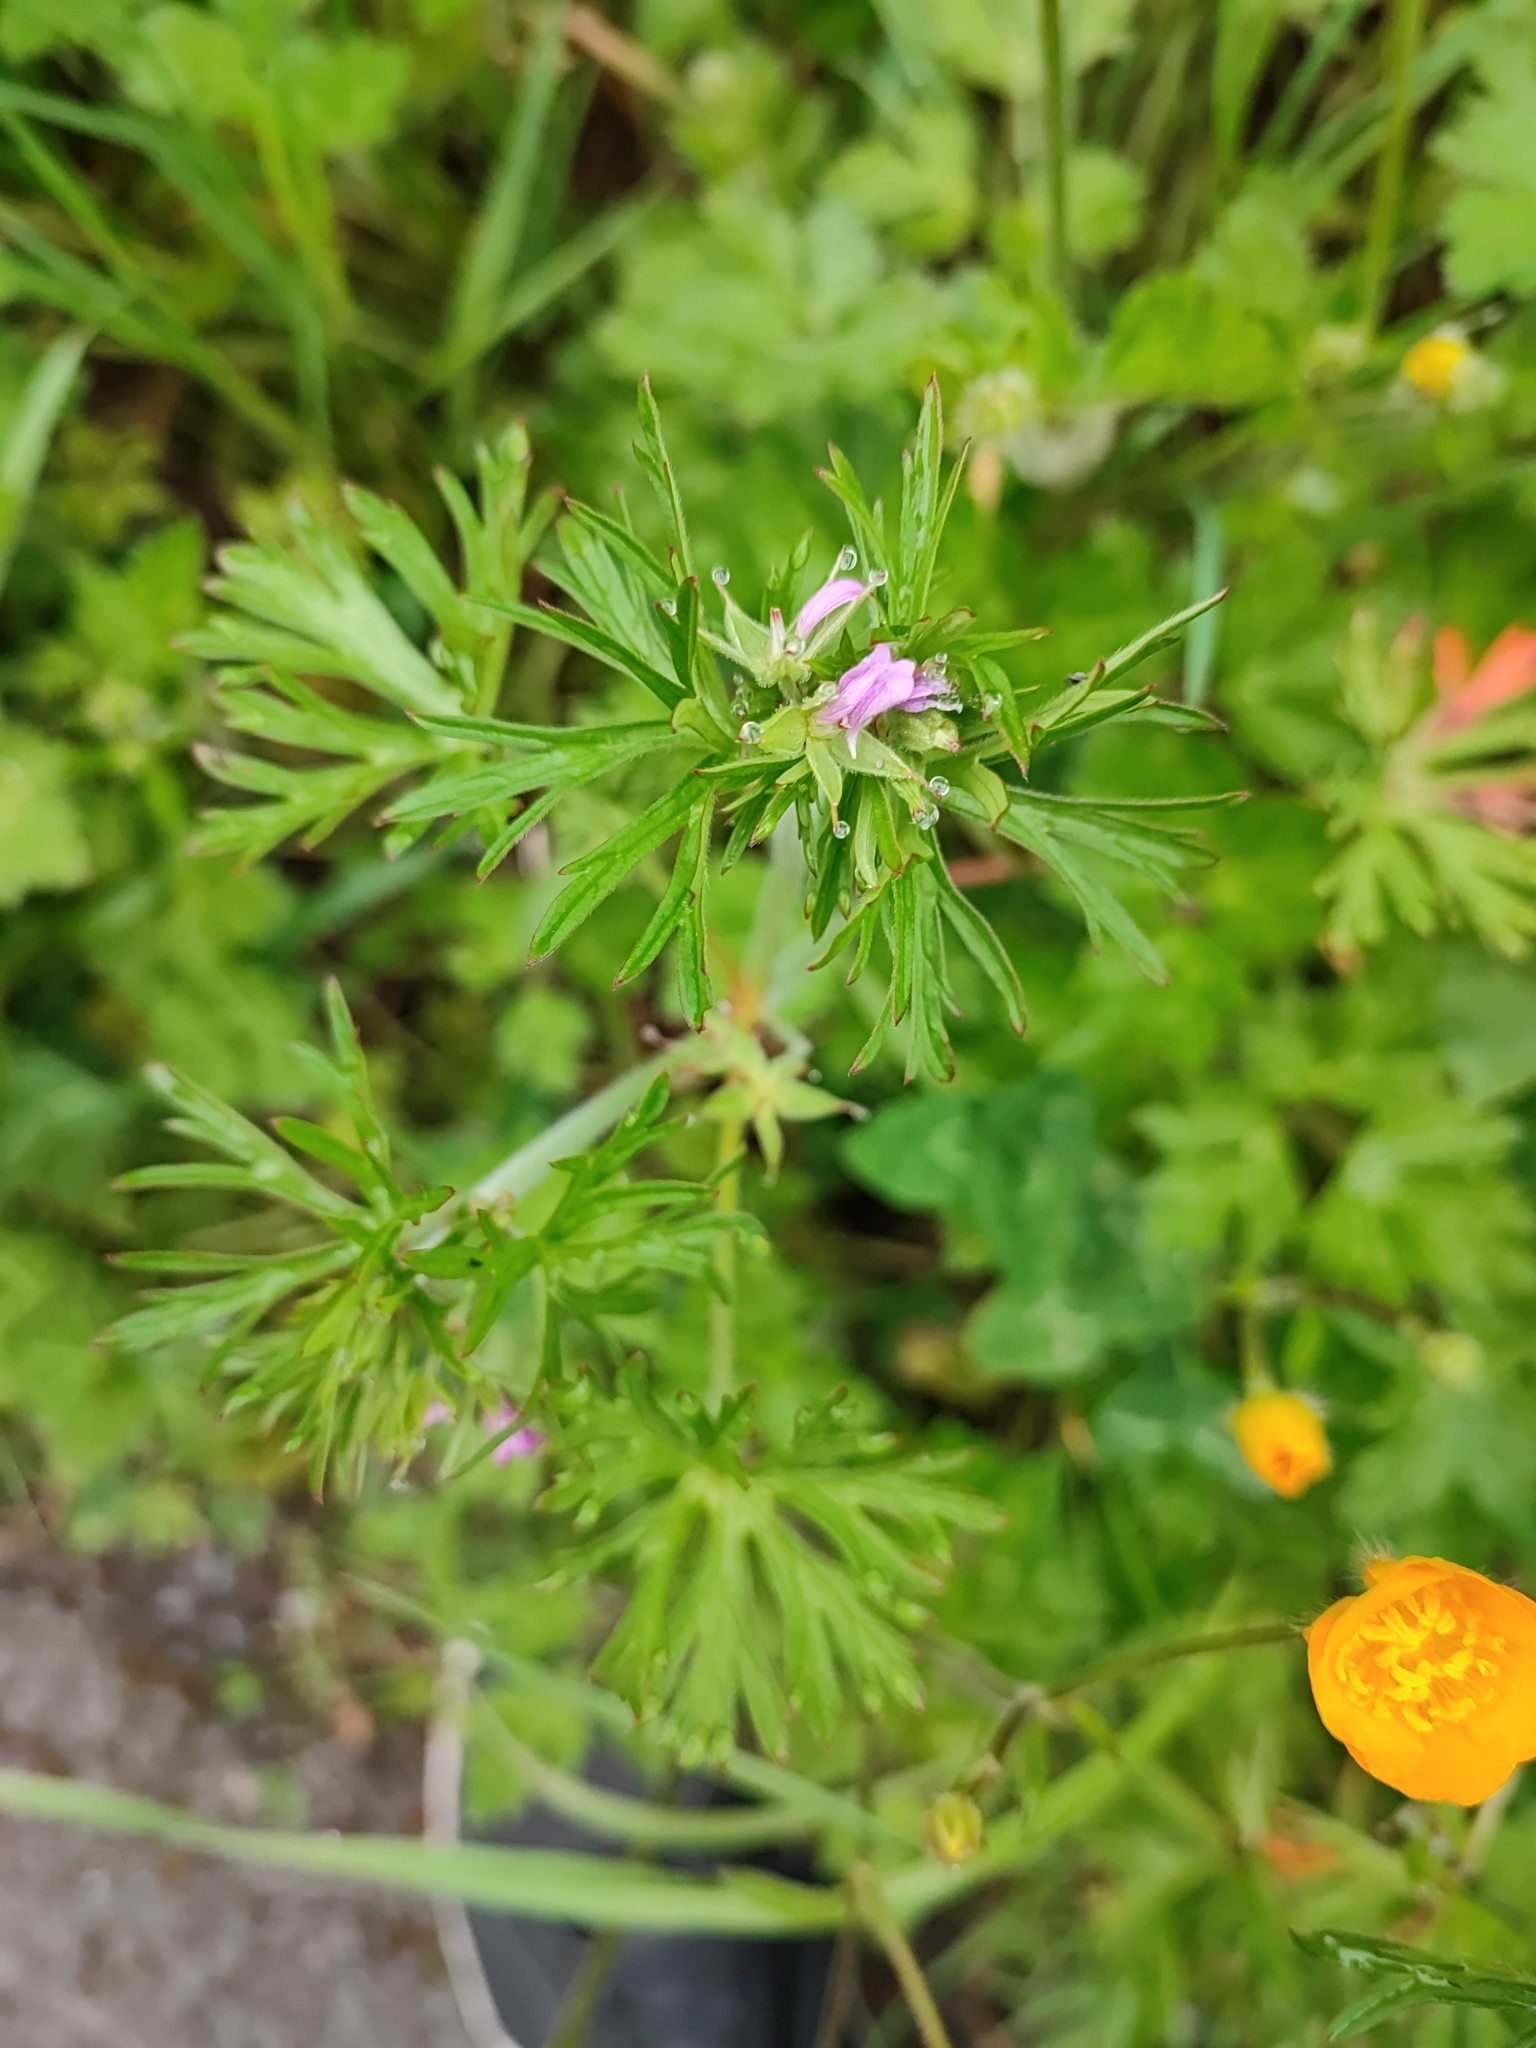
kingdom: Plantae
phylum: Tracheophyta
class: Magnoliopsida
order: Geraniales
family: Geraniaceae
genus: Geranium
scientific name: Geranium dissectum
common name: Cut-leaved crane's-bill
